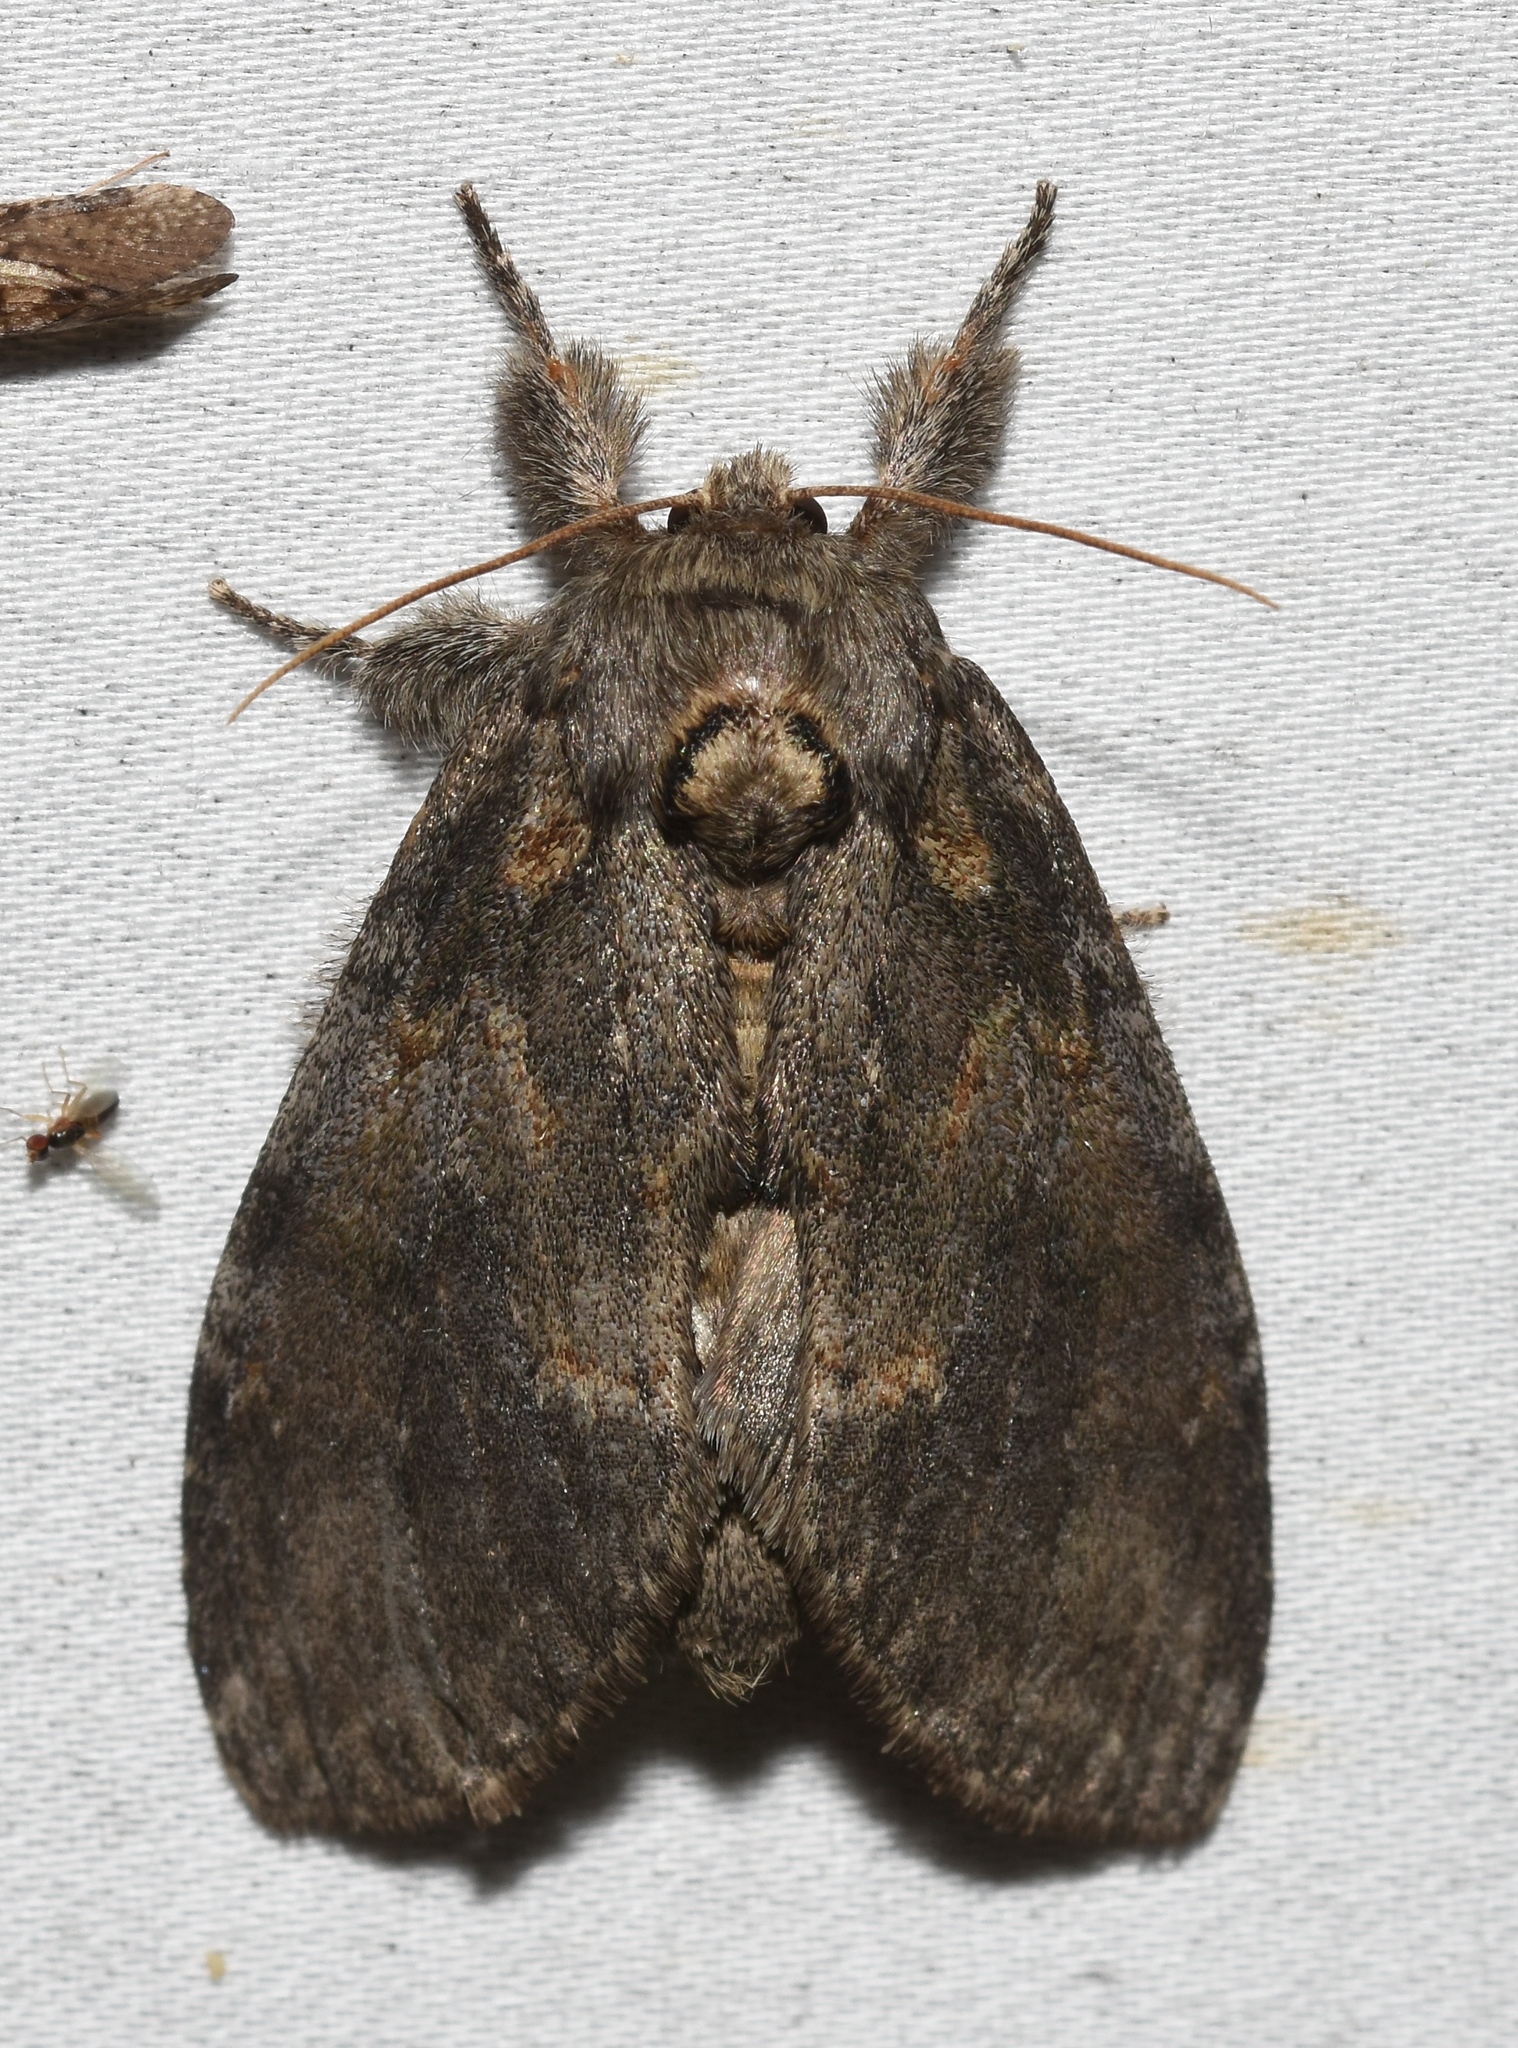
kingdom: Animalia
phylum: Arthropoda
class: Insecta
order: Lepidoptera
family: Notodontidae
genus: Peridea
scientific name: Peridea angulosa
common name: Angulose prominent
